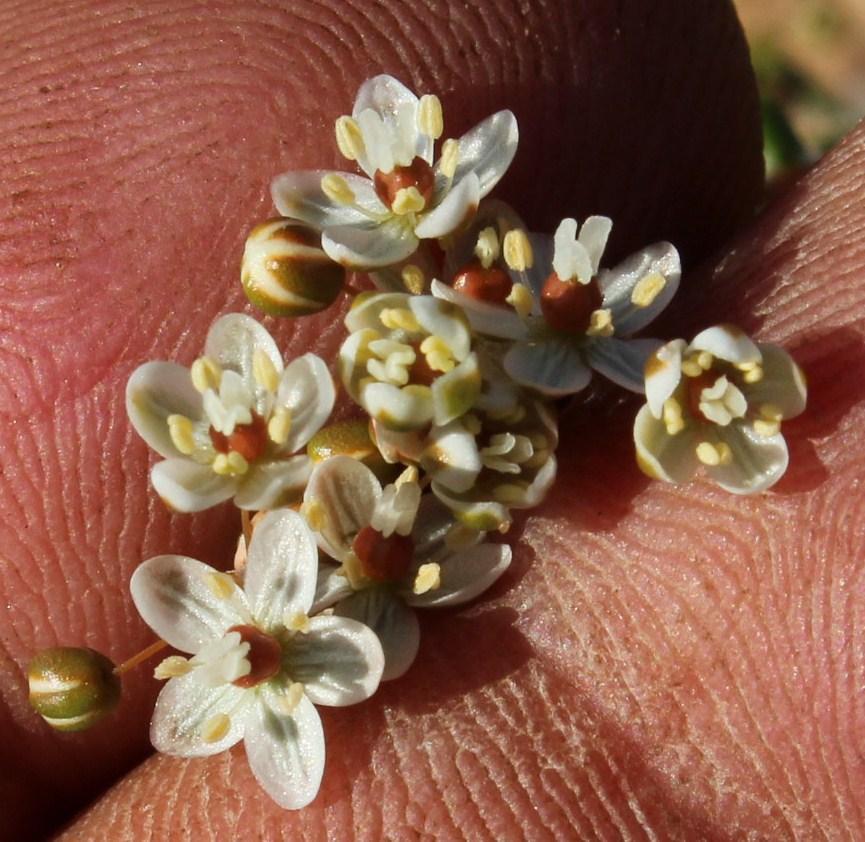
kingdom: Plantae
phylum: Tracheophyta
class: Magnoliopsida
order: Caryophyllales
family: Molluginaceae
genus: Pharnaceum
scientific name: Pharnaceum lanuginosum
